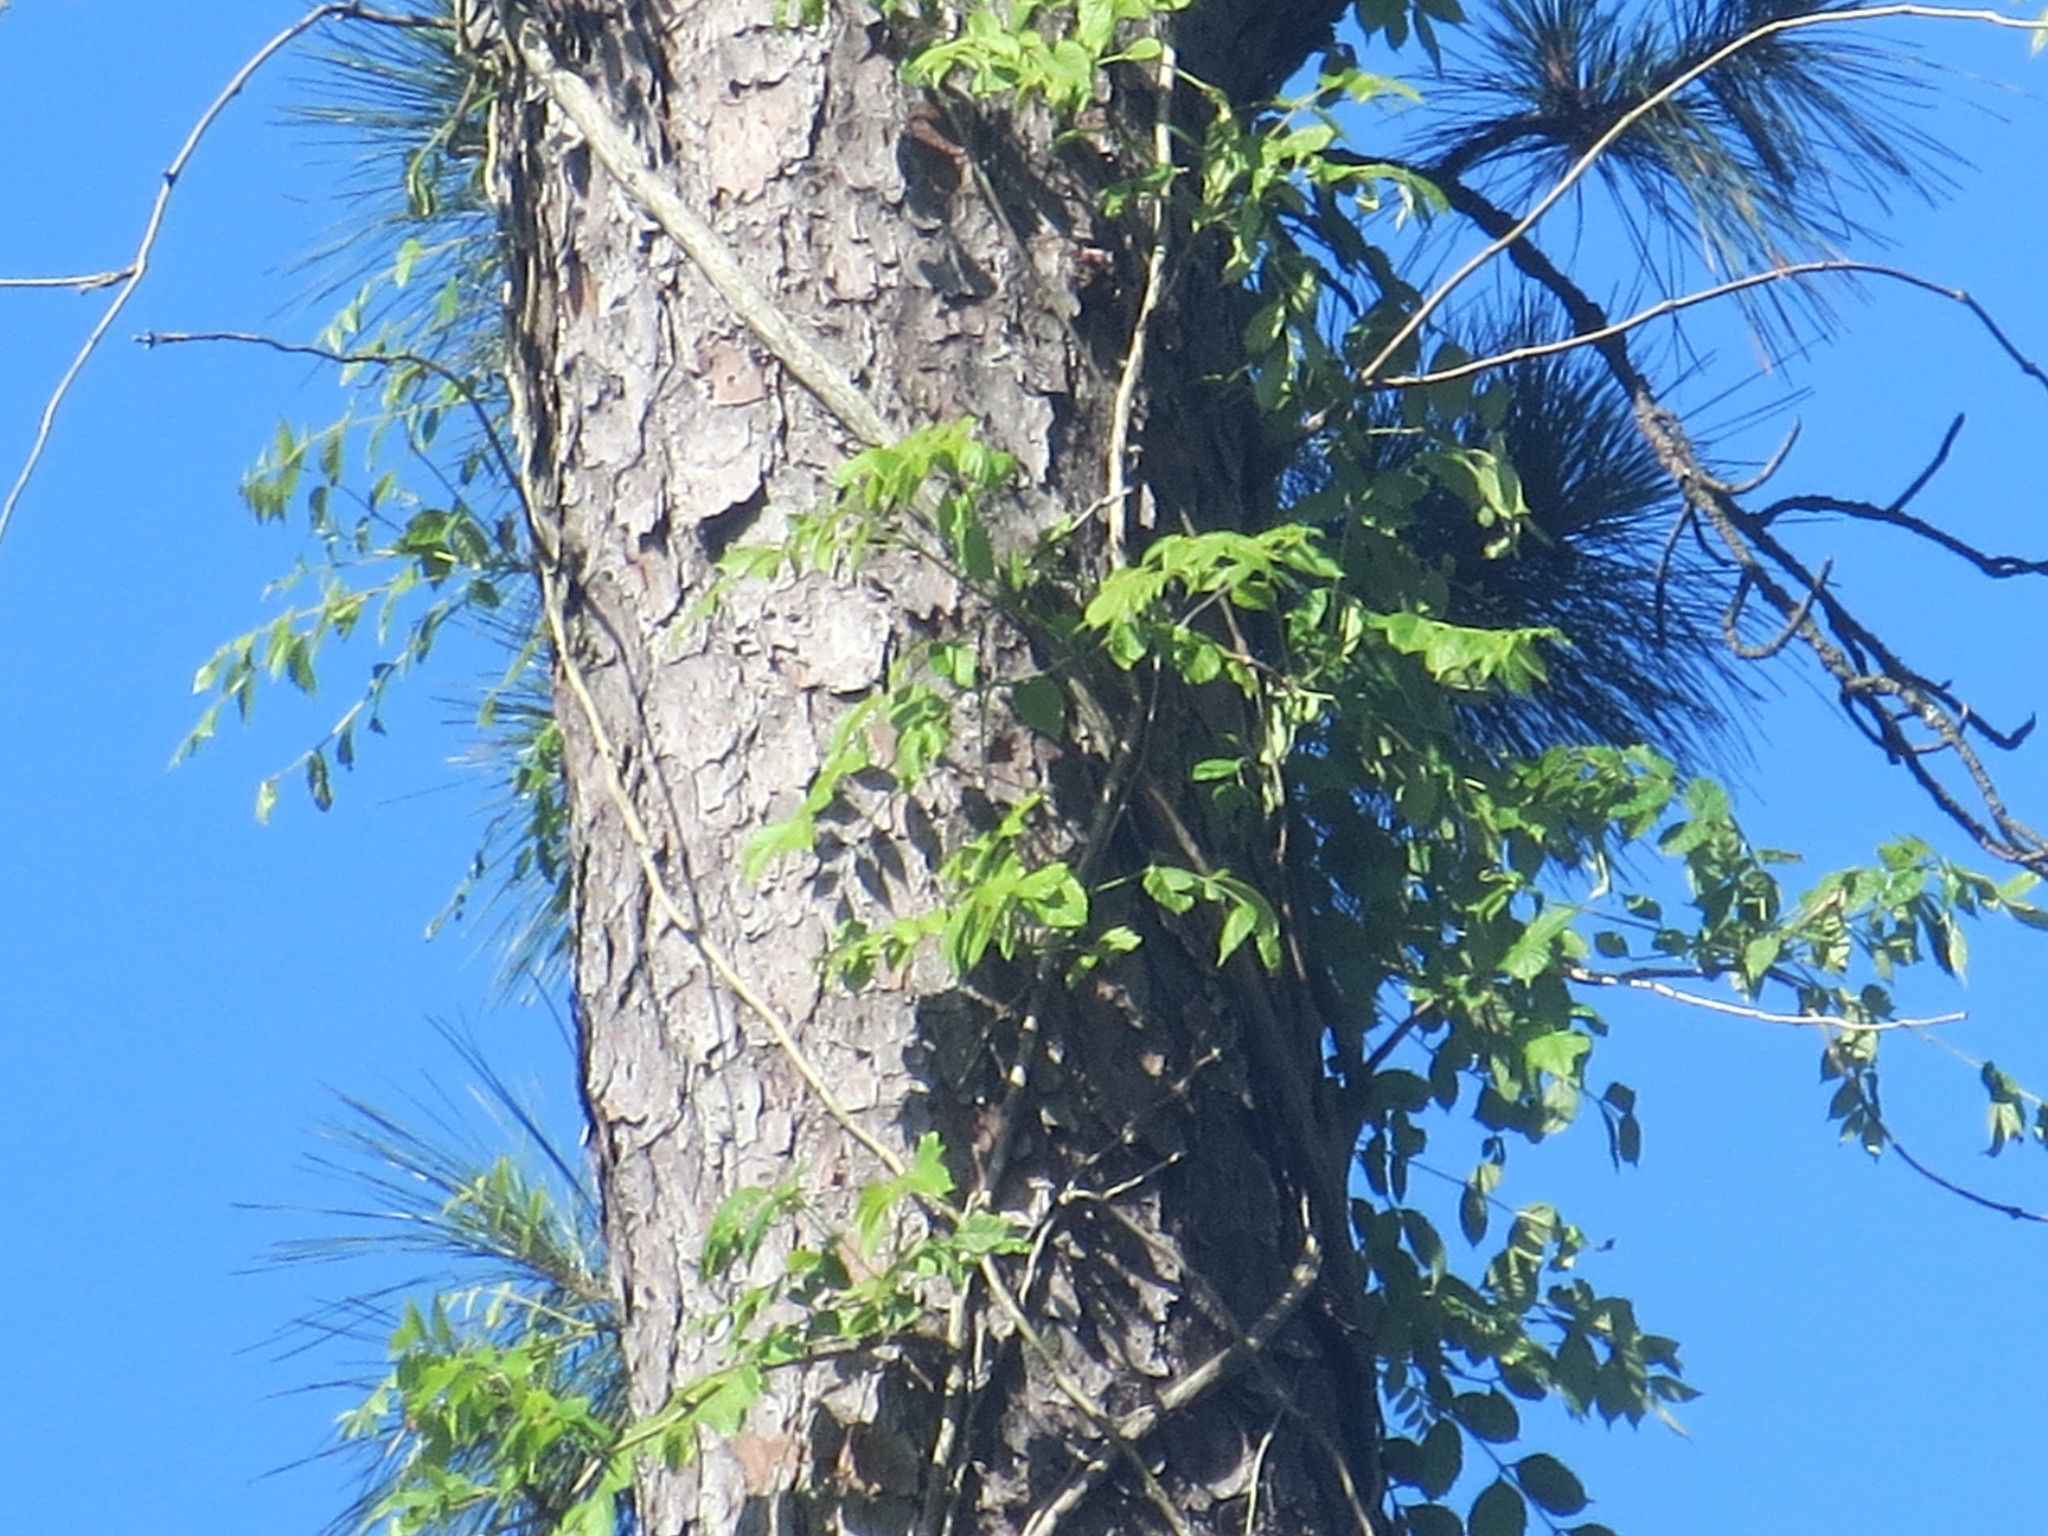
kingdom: Plantae
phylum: Tracheophyta
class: Magnoliopsida
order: Lamiales
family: Bignoniaceae
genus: Campsis
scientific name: Campsis radicans
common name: Trumpet-creeper
